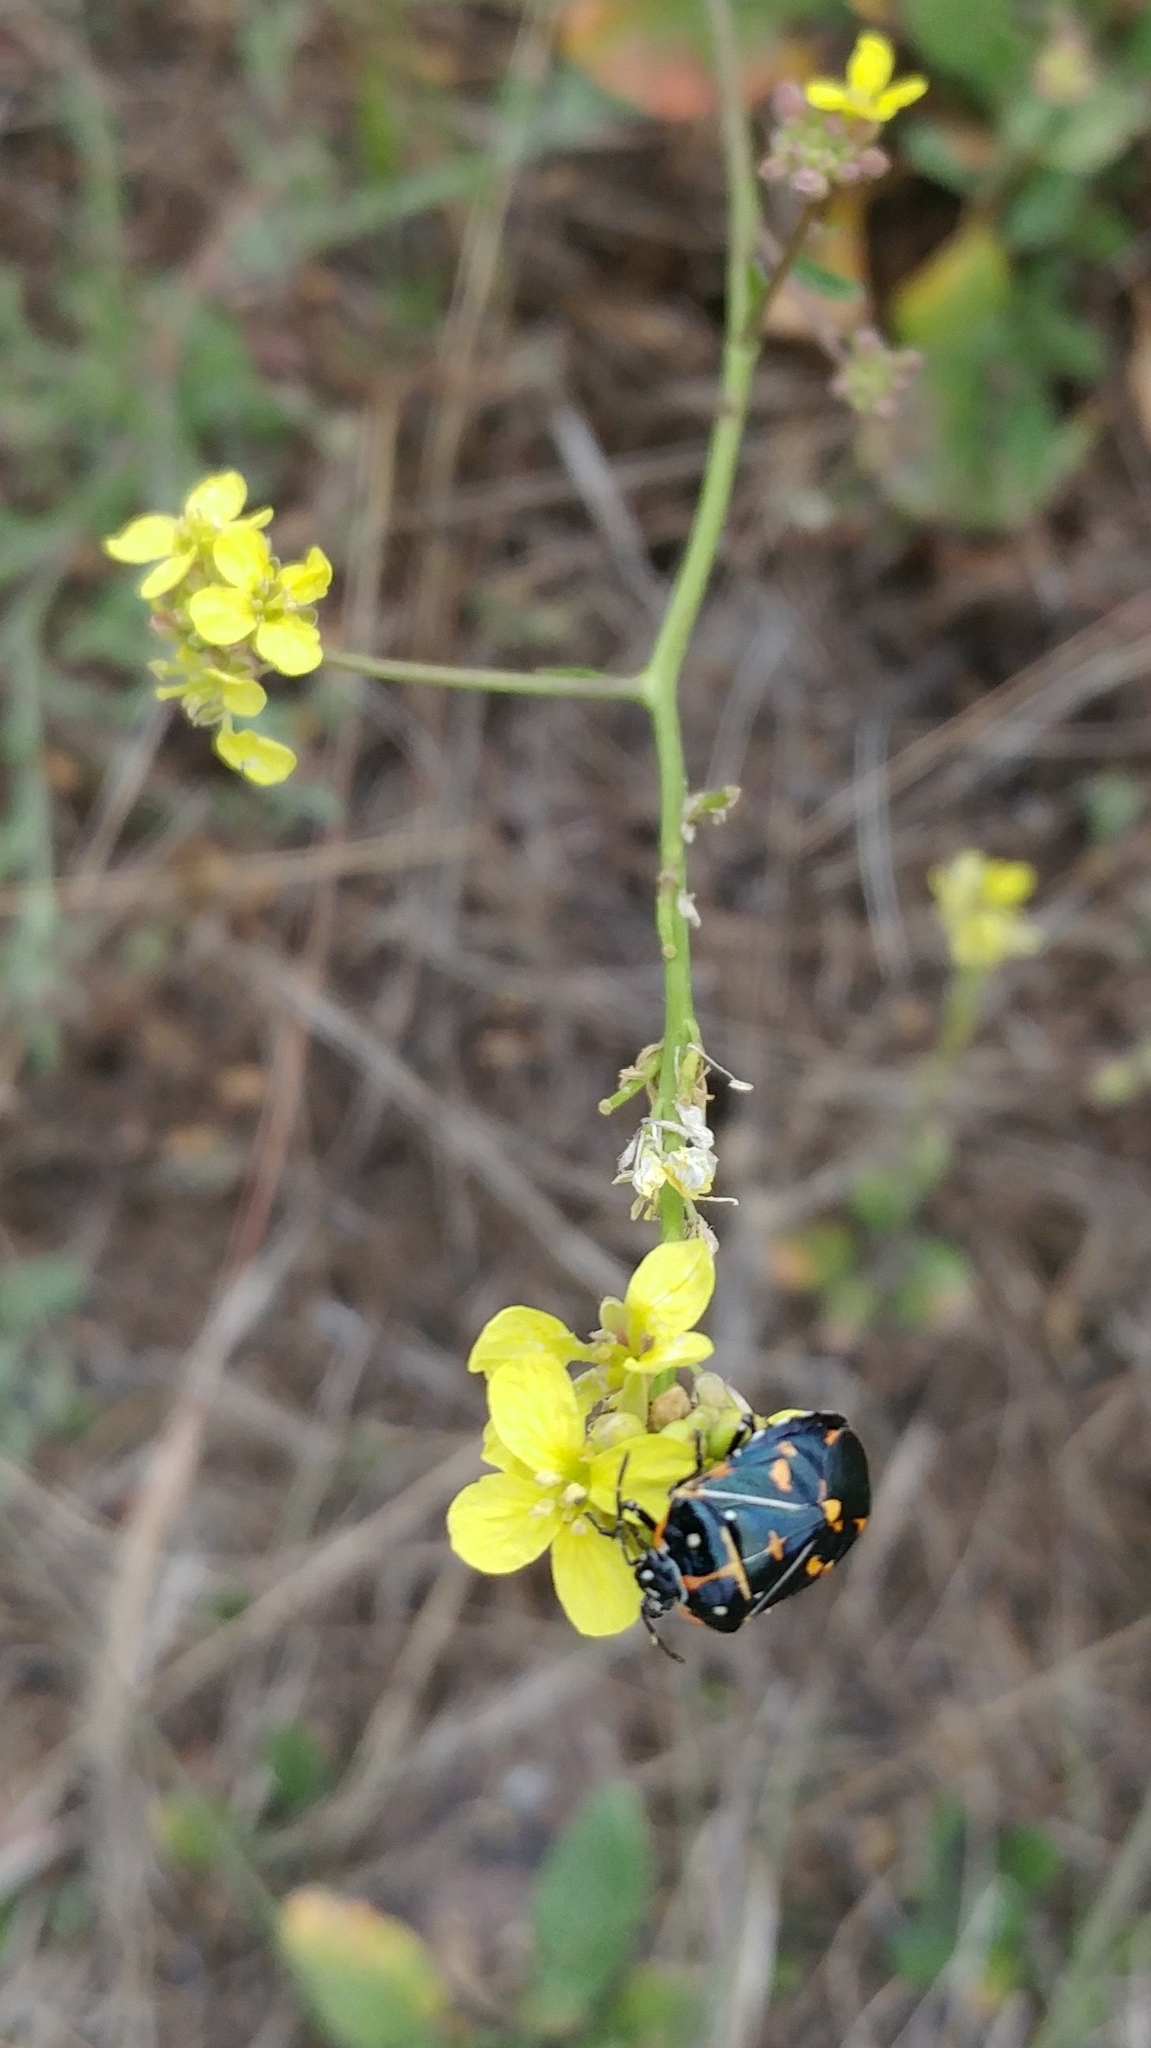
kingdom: Animalia
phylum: Arthropoda
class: Insecta
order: Hemiptera
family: Pentatomidae
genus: Murgantia
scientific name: Murgantia histrionica
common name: Harlequin bug
